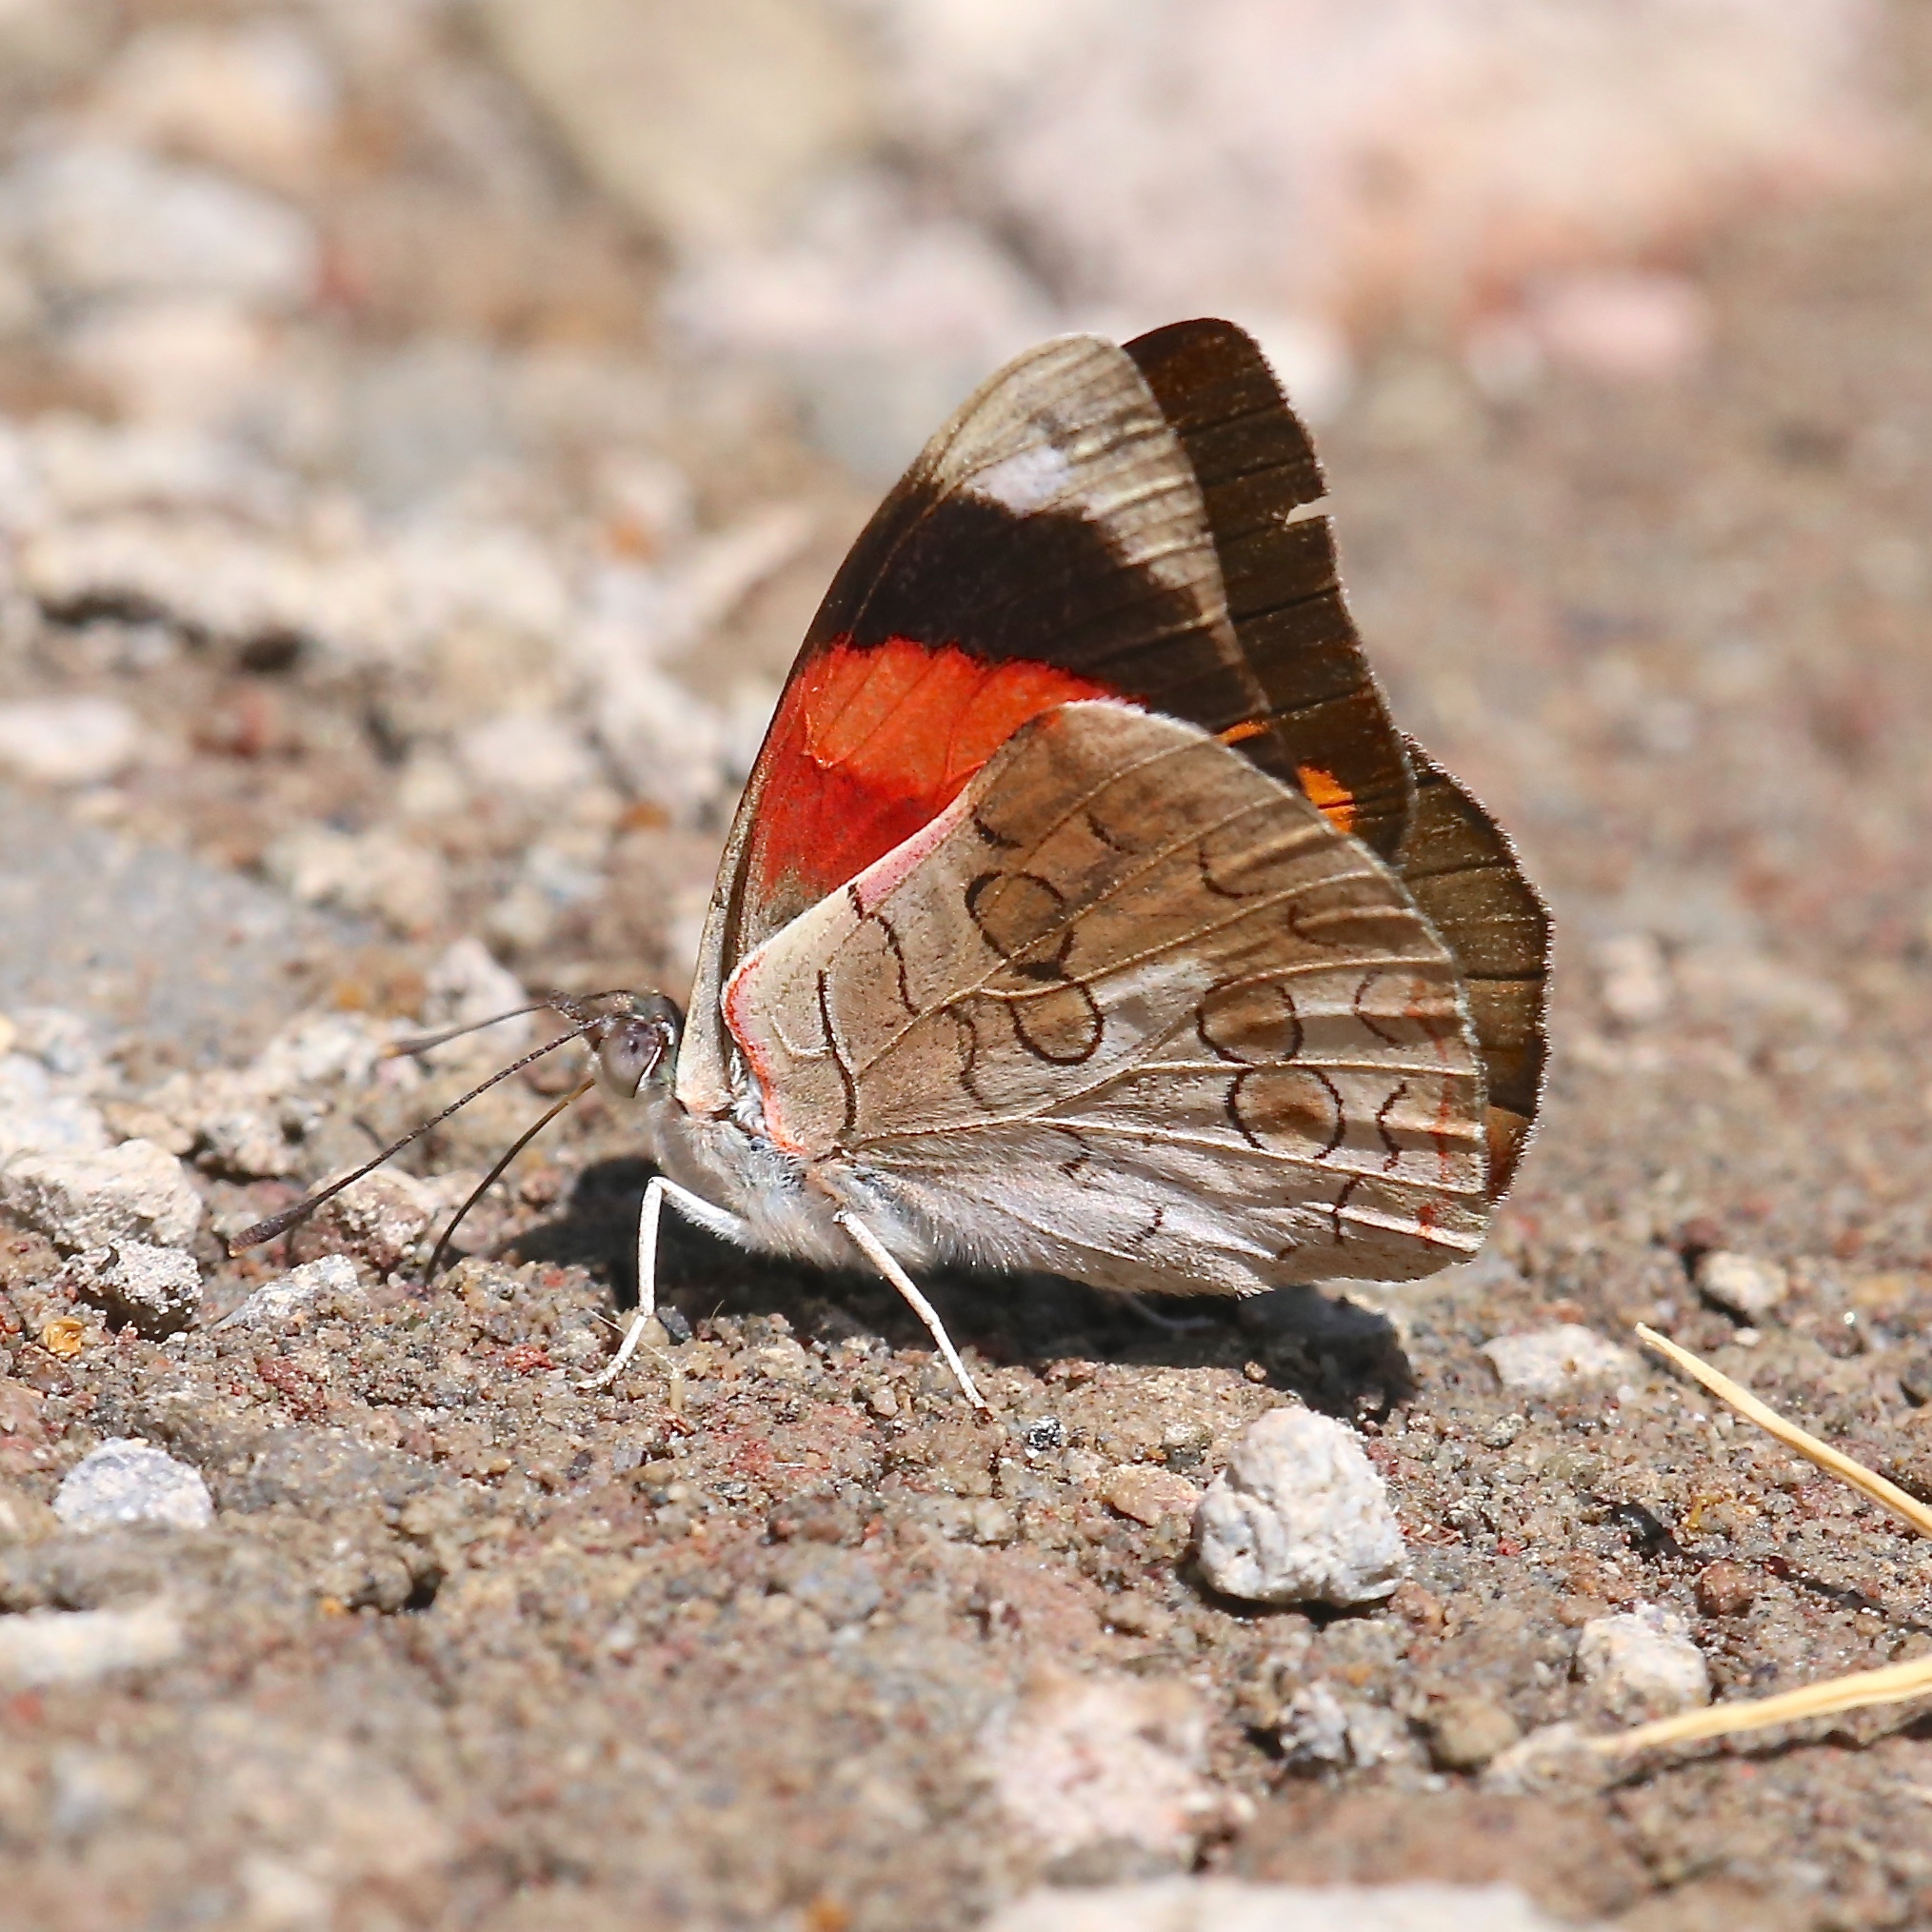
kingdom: Animalia
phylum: Arthropoda
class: Insecta
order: Lepidoptera
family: Nymphalidae
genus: Diaethria
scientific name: Diaethria pandama
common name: Orange-striped eighty-eight
